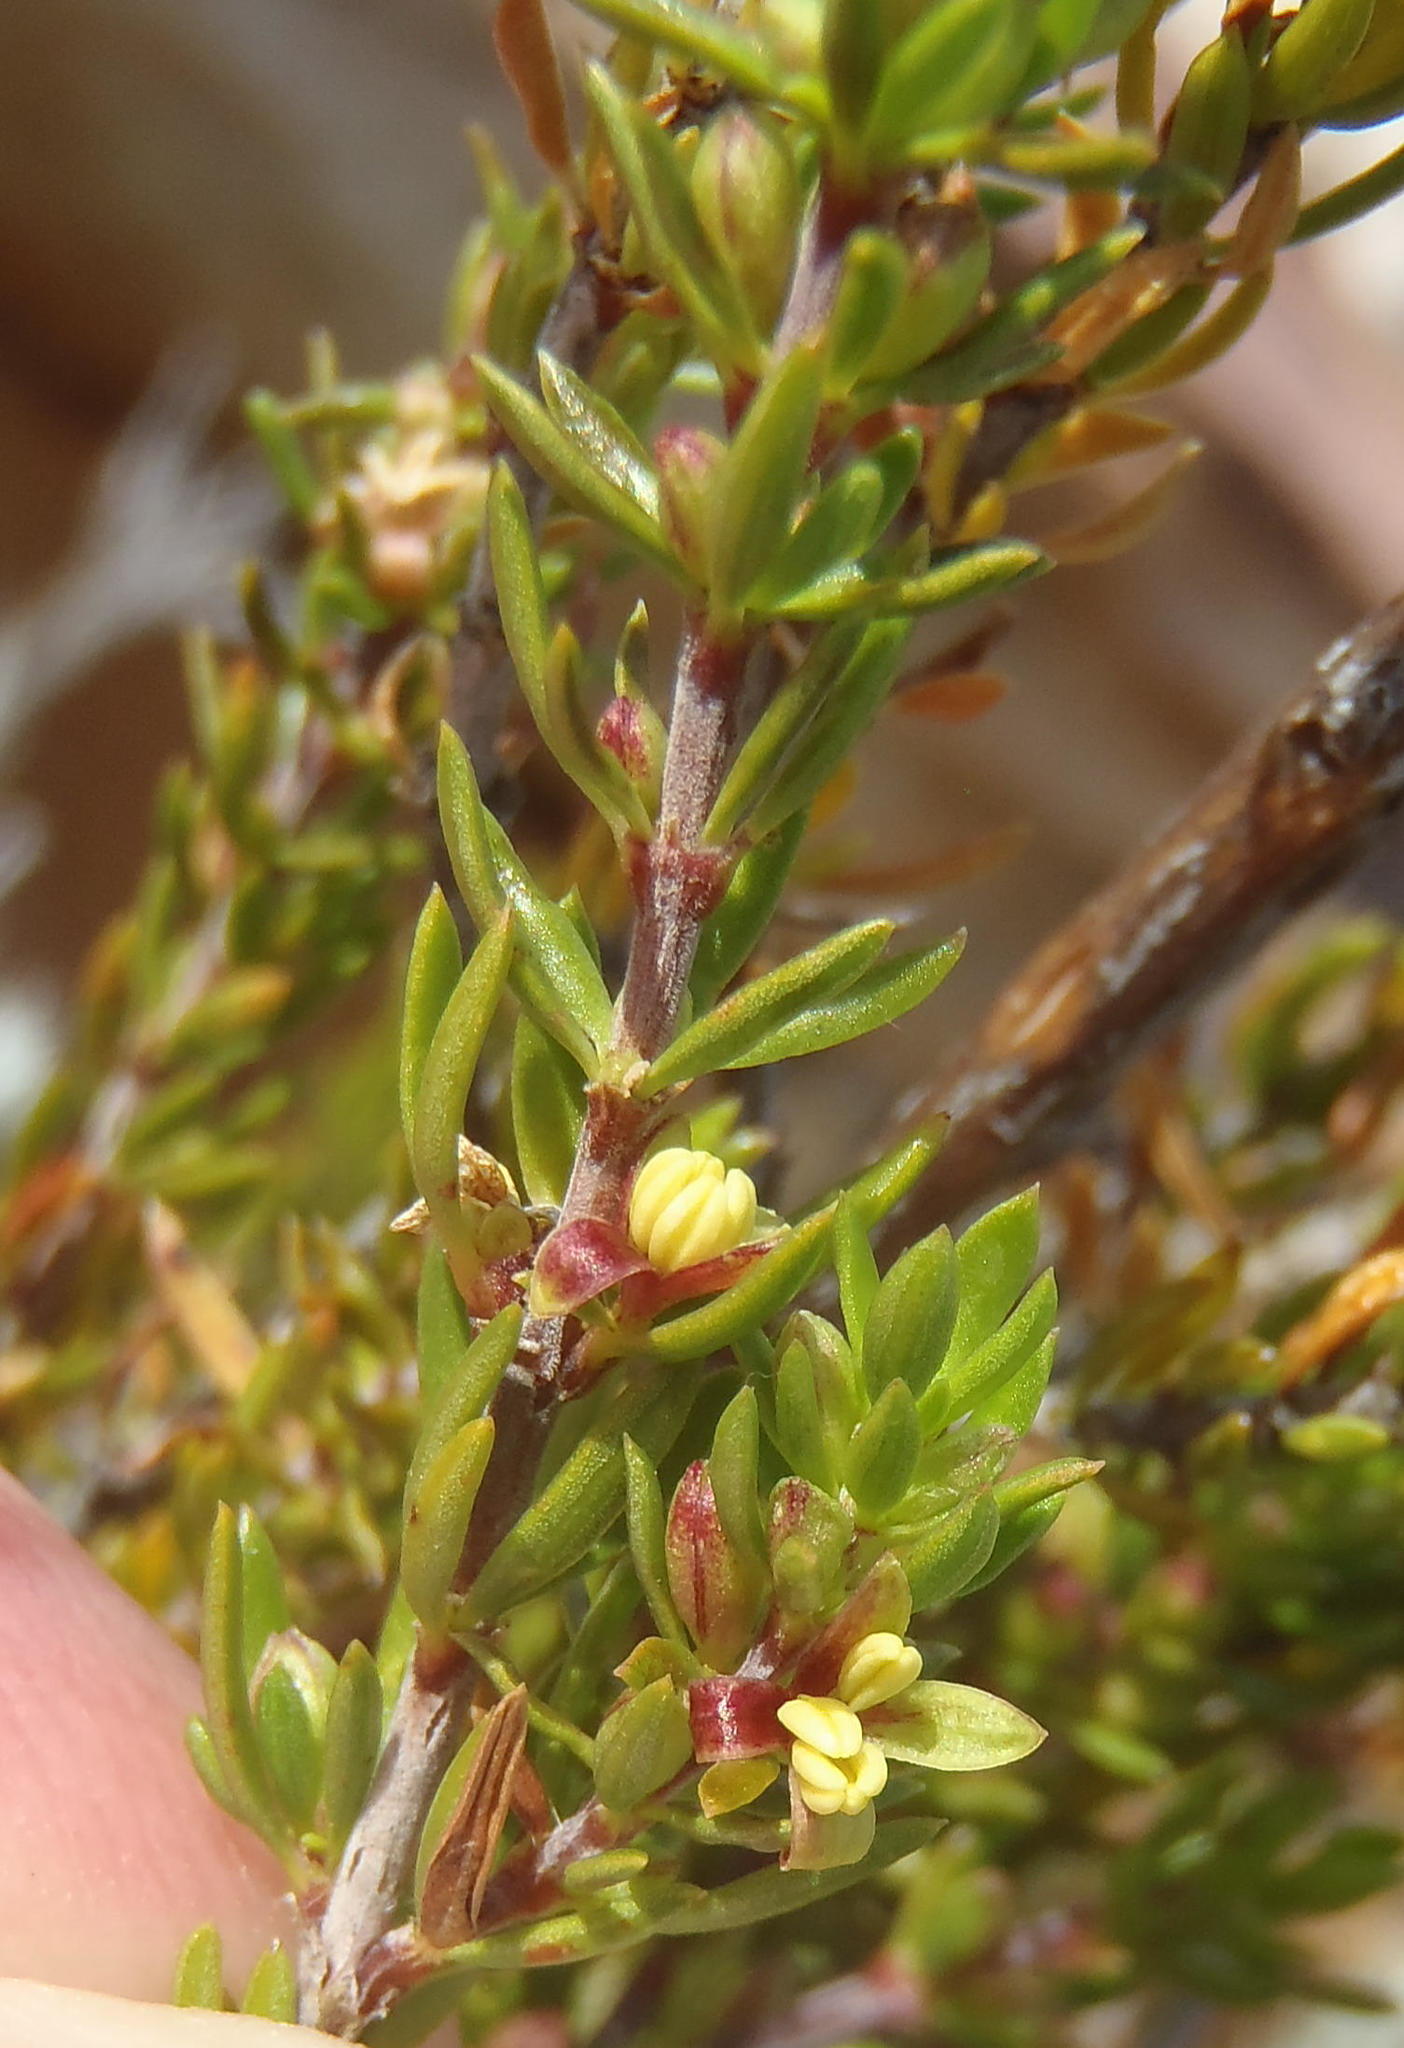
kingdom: Plantae
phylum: Tracheophyta
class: Magnoliopsida
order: Gentianales
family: Rubiaceae
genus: Anthospermum
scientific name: Anthospermum aethiopicum
